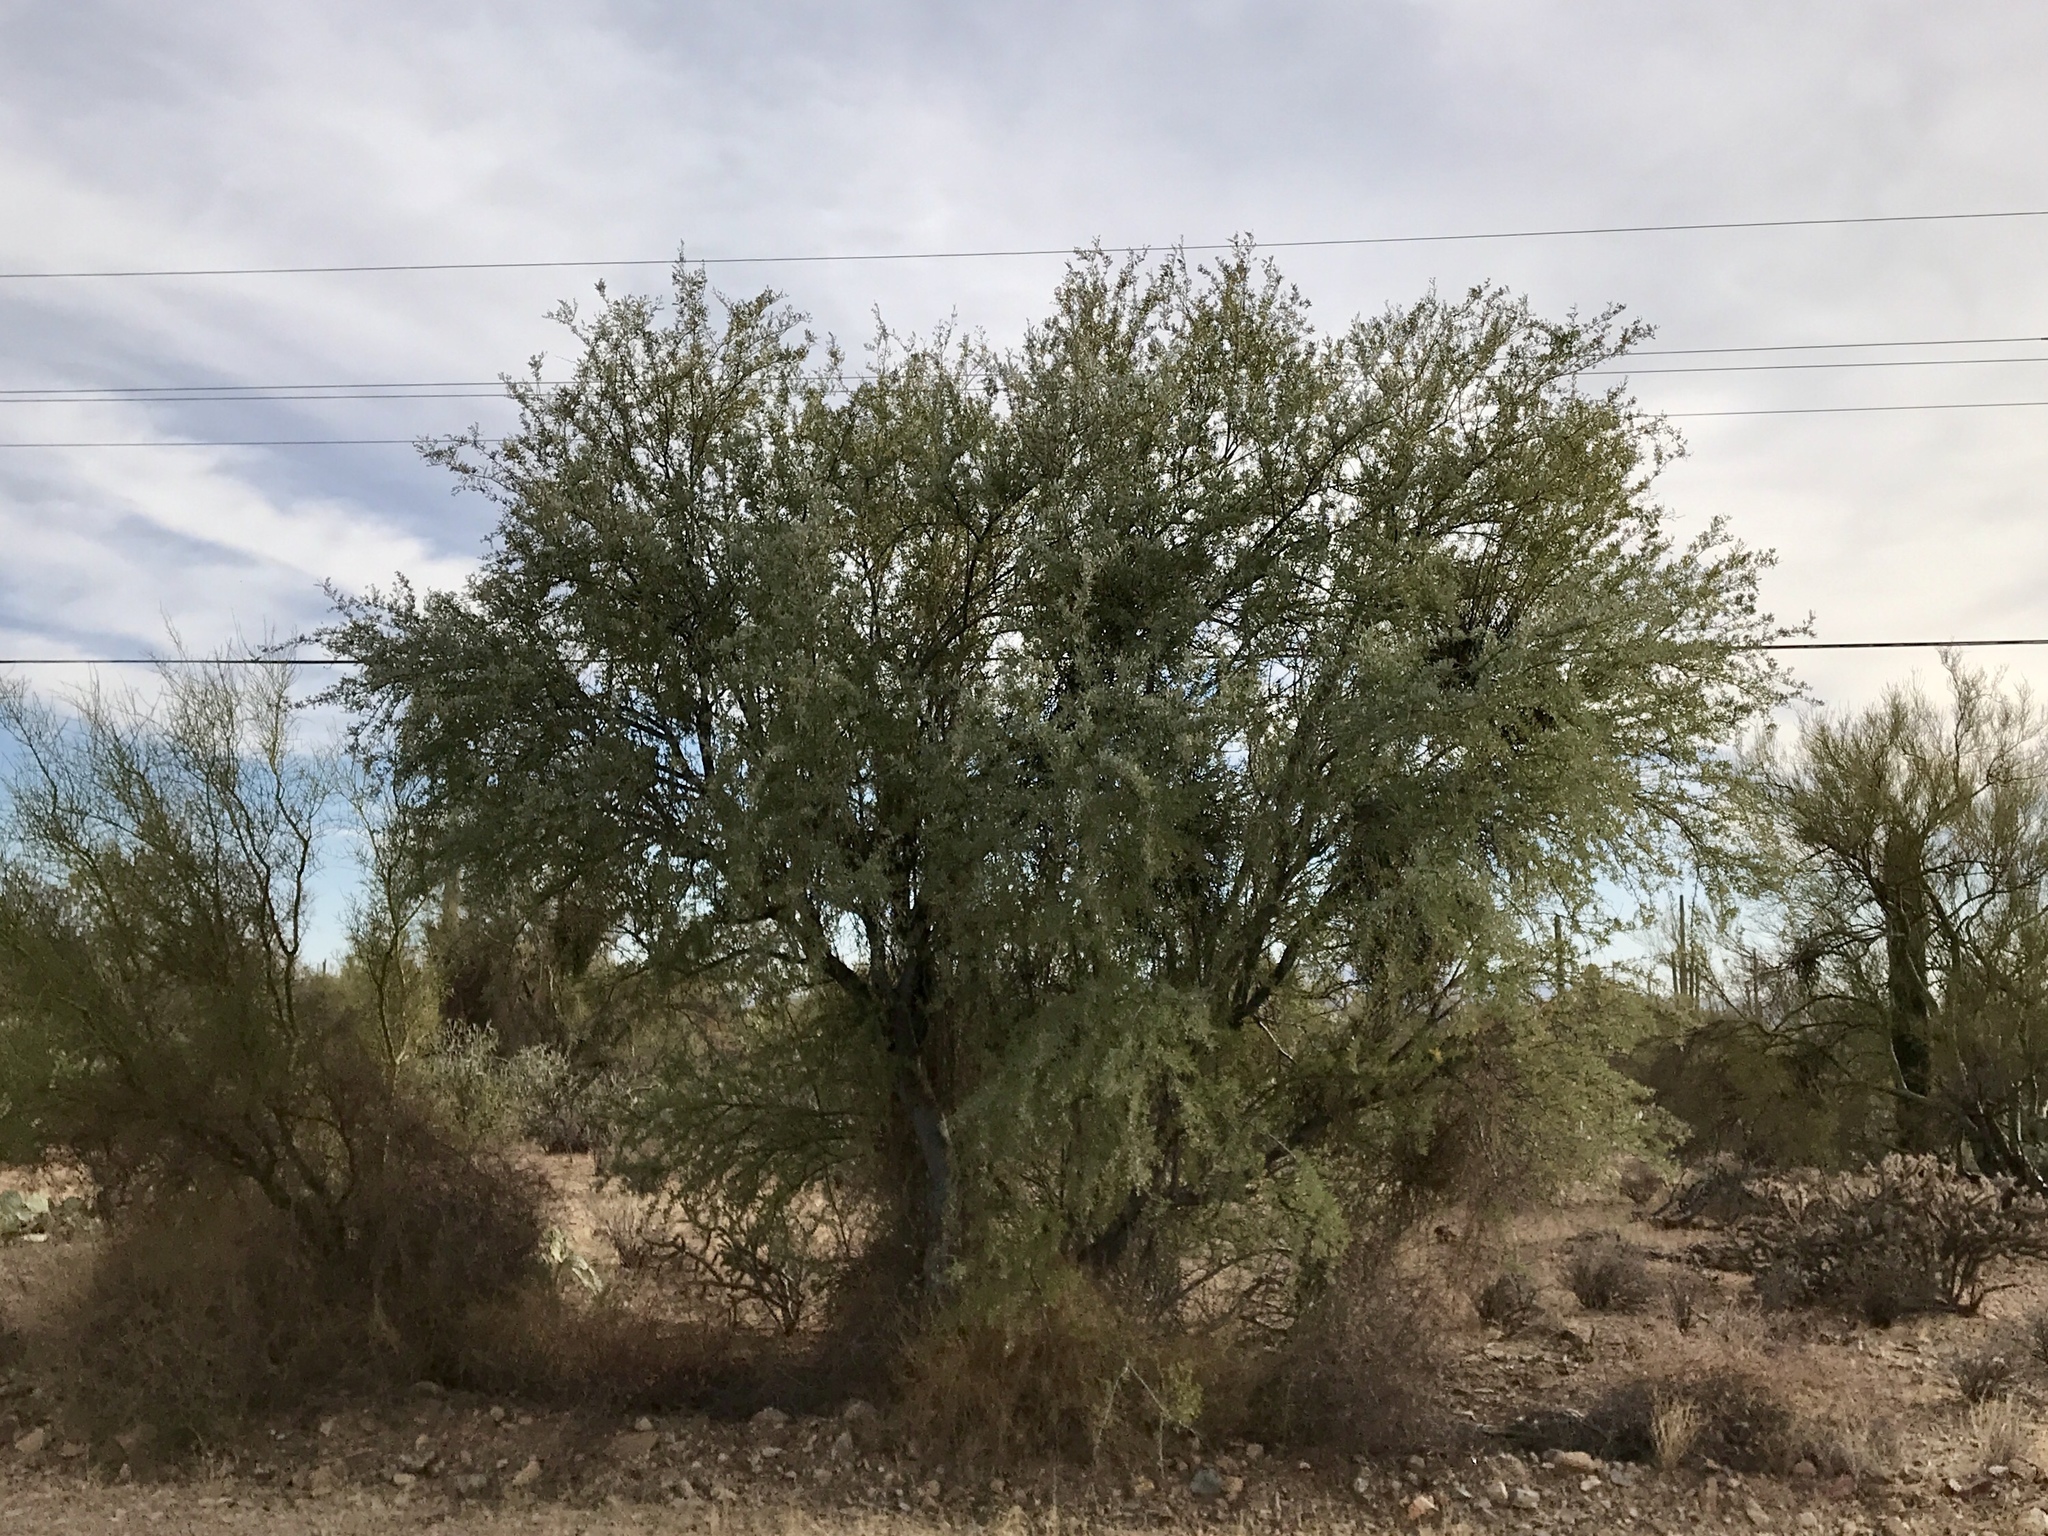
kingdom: Plantae
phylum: Tracheophyta
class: Magnoliopsida
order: Fabales
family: Fabaceae
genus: Olneya
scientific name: Olneya tesota
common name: Desert ironwood
